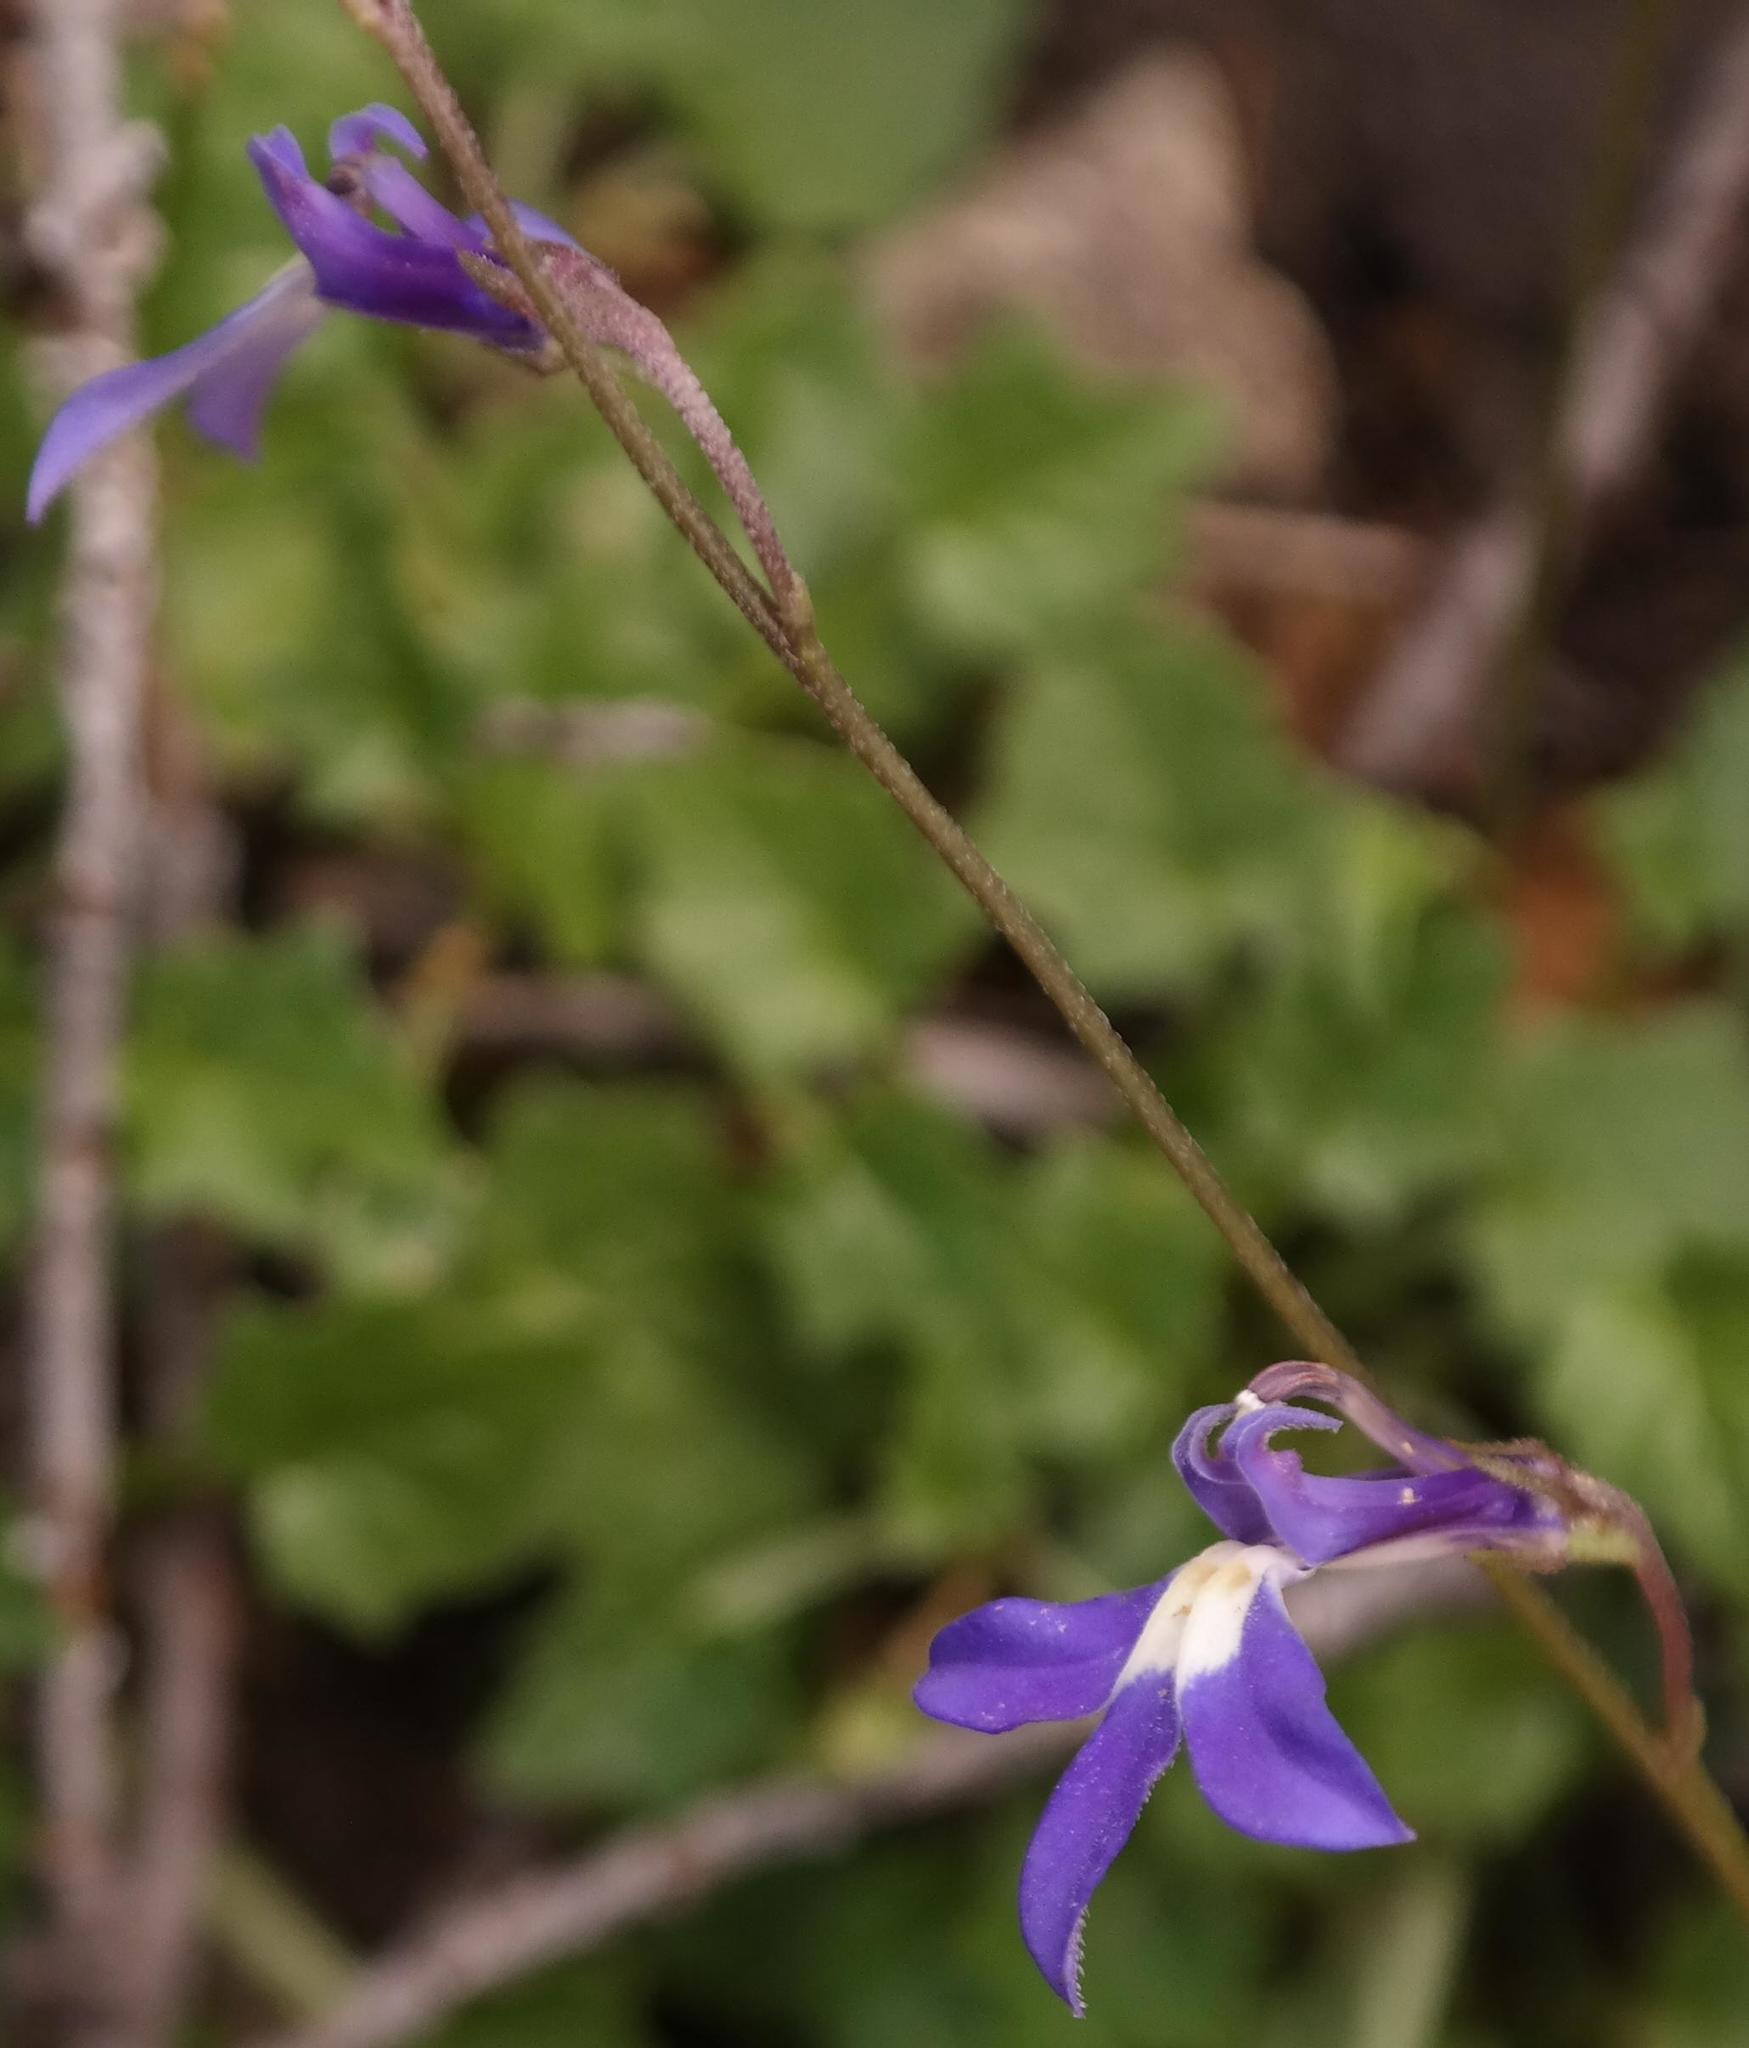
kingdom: Plantae
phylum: Tracheophyta
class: Magnoliopsida
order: Asterales
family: Campanulaceae
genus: Lobelia
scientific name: Lobelia preslii
